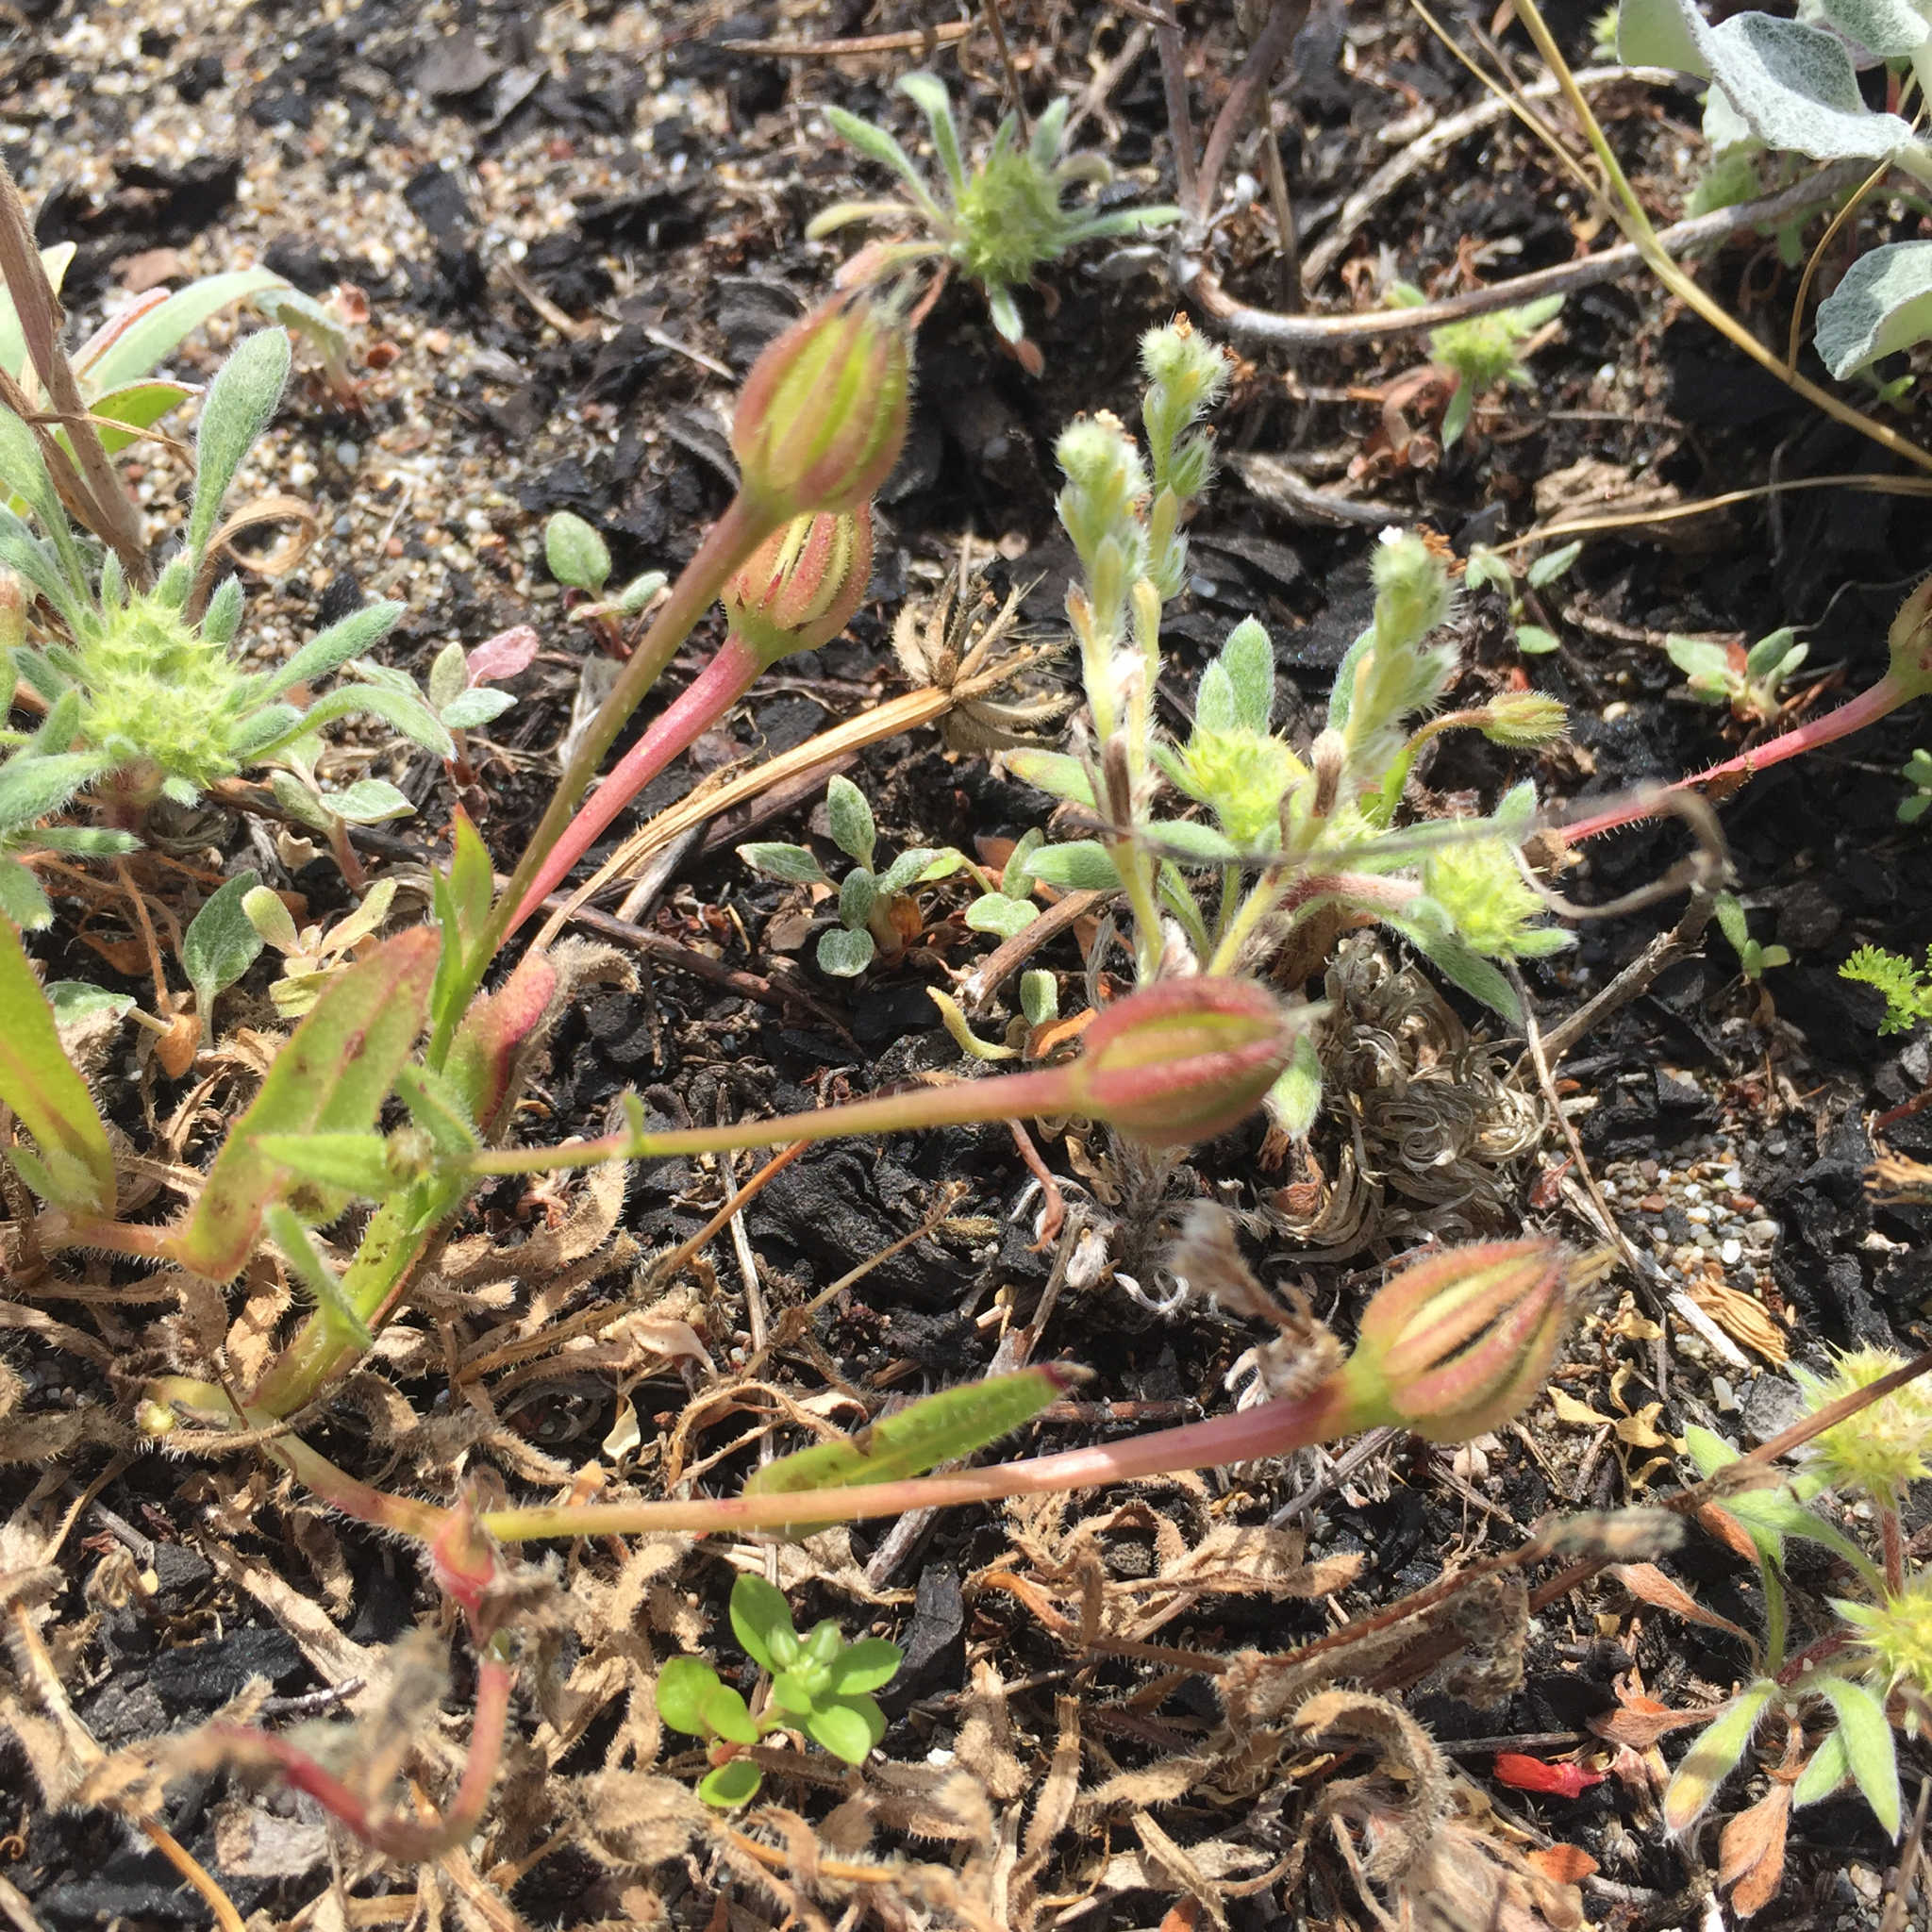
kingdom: Plantae
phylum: Tracheophyta
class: Magnoliopsida
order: Asterales
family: Asteraceae
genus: Hedypnois
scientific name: Hedypnois rhagadioloides
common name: Cretan weed
